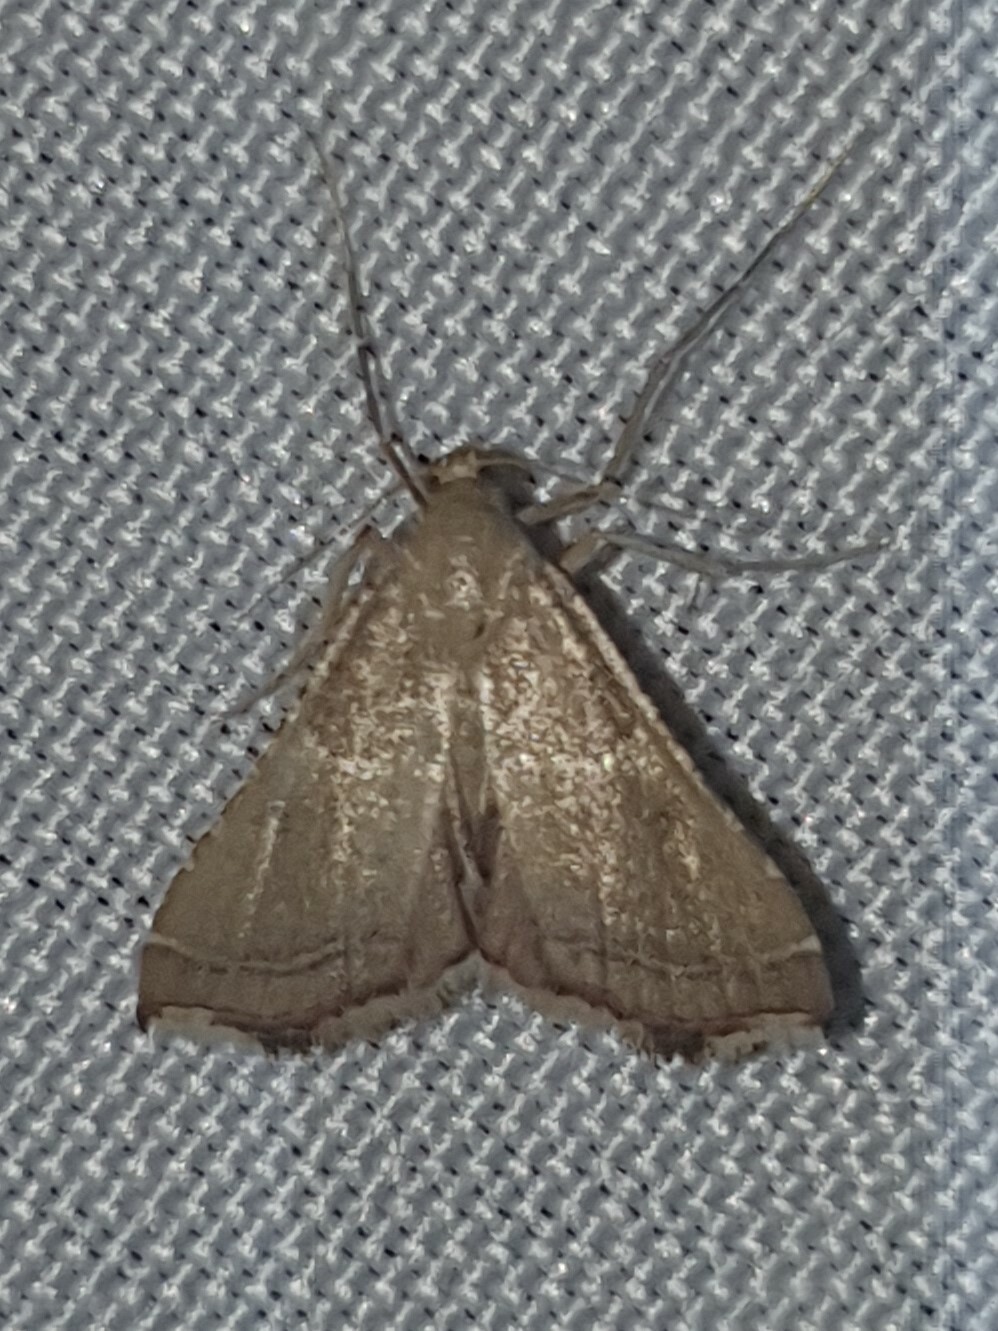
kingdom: Animalia
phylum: Arthropoda
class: Insecta
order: Lepidoptera
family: Pyralidae
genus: Endotricha
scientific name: Endotricha flammealis
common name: Rosy tabby
